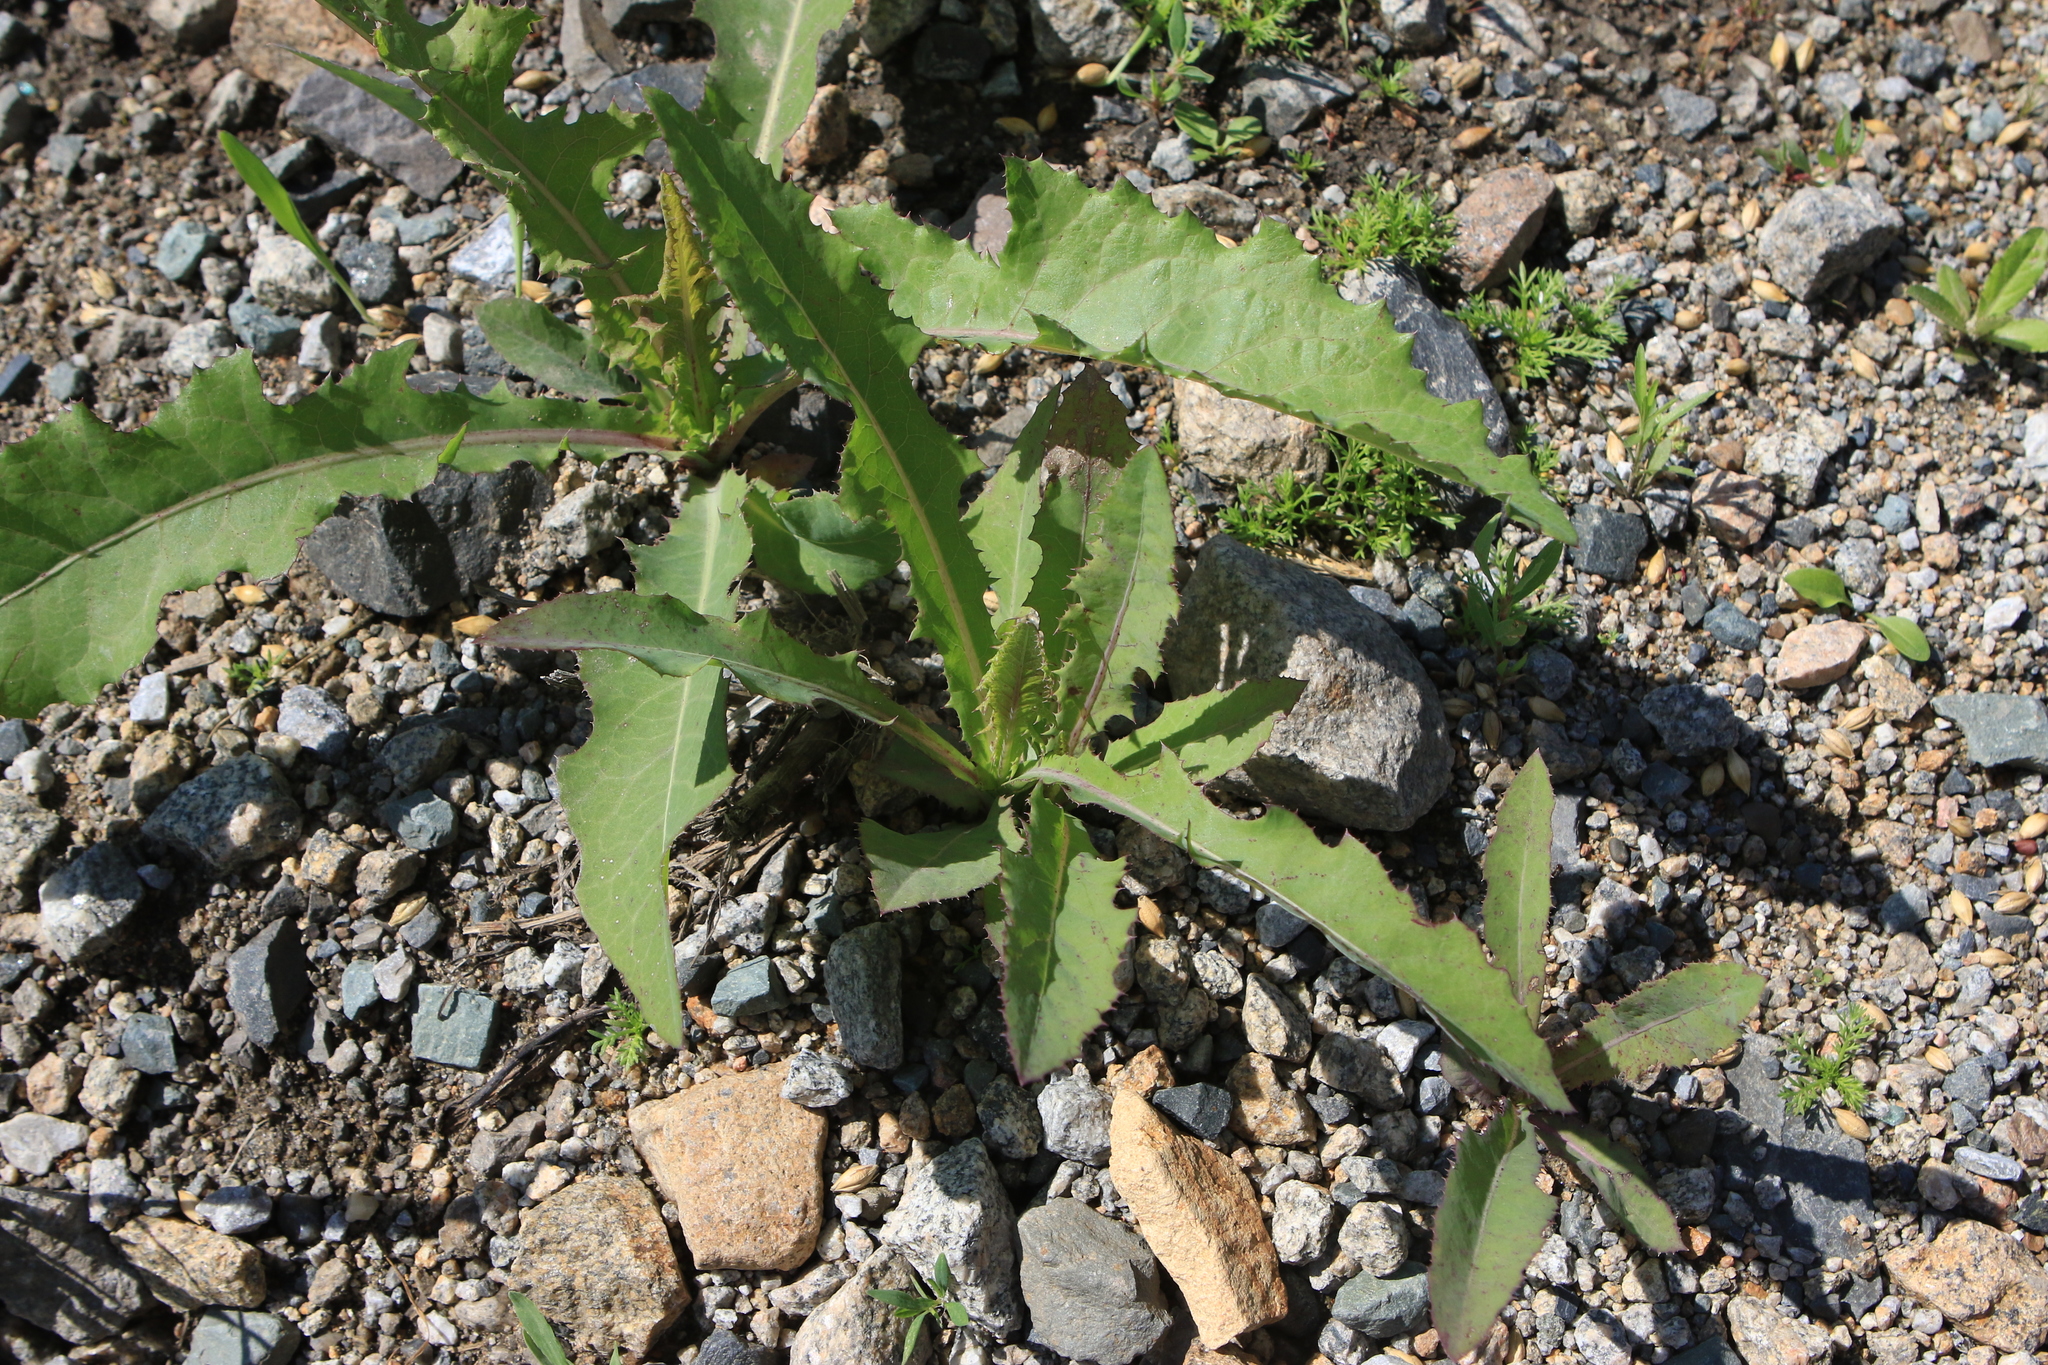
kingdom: Plantae
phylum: Tracheophyta
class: Magnoliopsida
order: Asterales
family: Asteraceae
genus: Sonchus
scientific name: Sonchus arvensis
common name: Perennial sow-thistle
